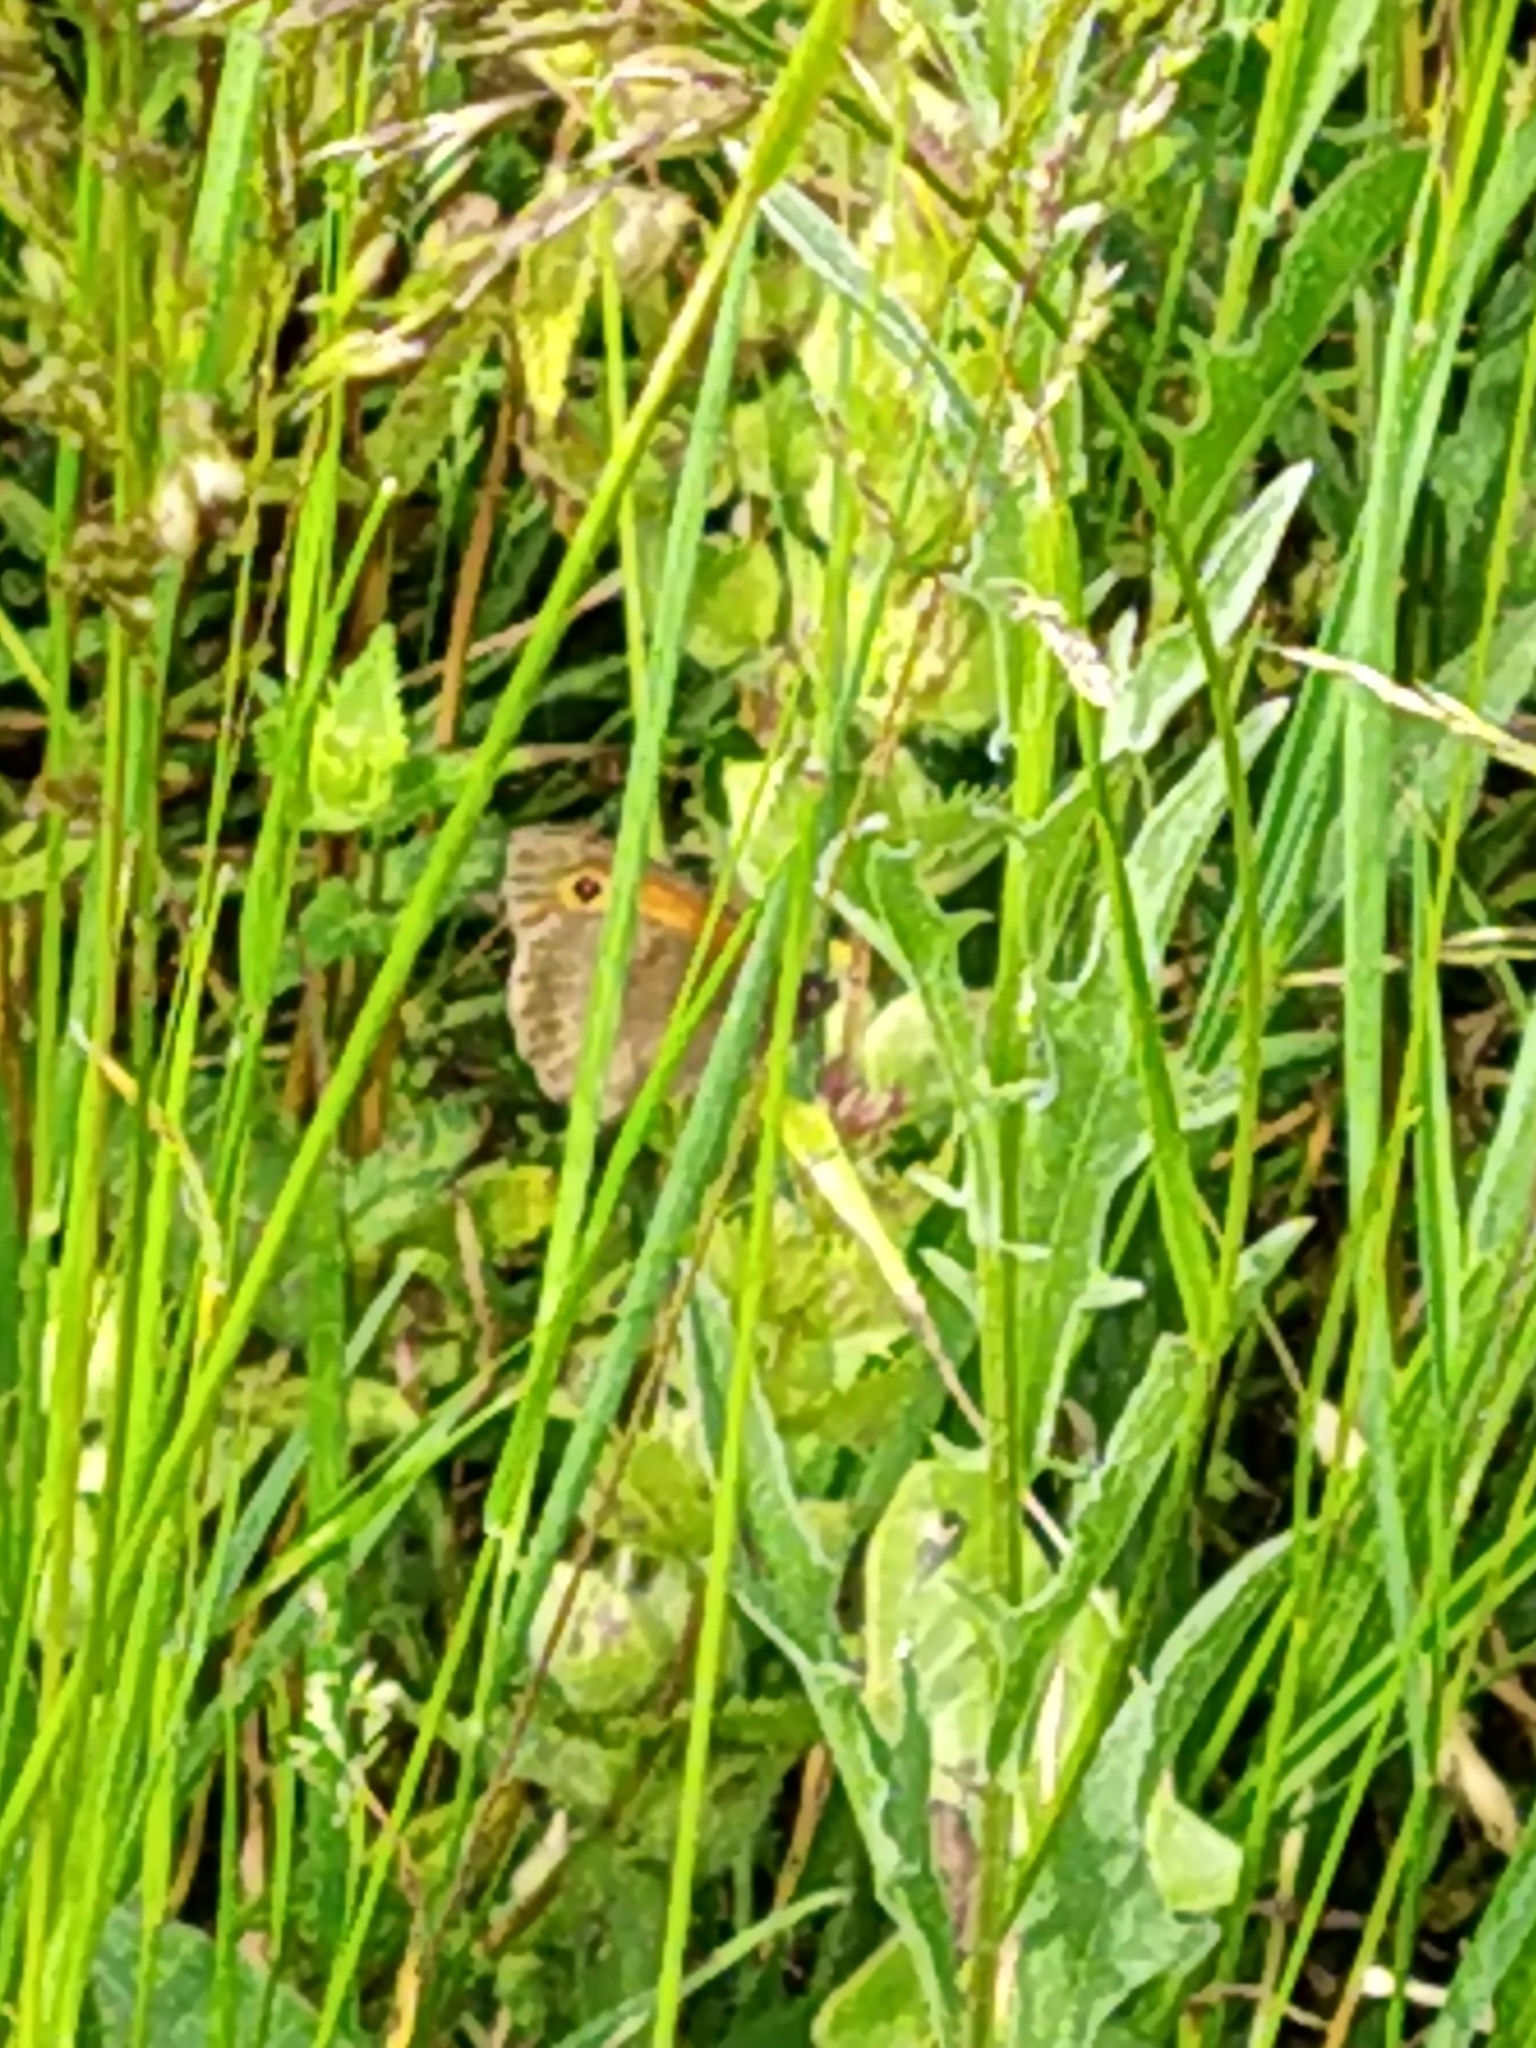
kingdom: Animalia
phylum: Arthropoda
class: Insecta
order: Lepidoptera
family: Nymphalidae
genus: Maniola
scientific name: Maniola jurtina
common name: Meadow brown
